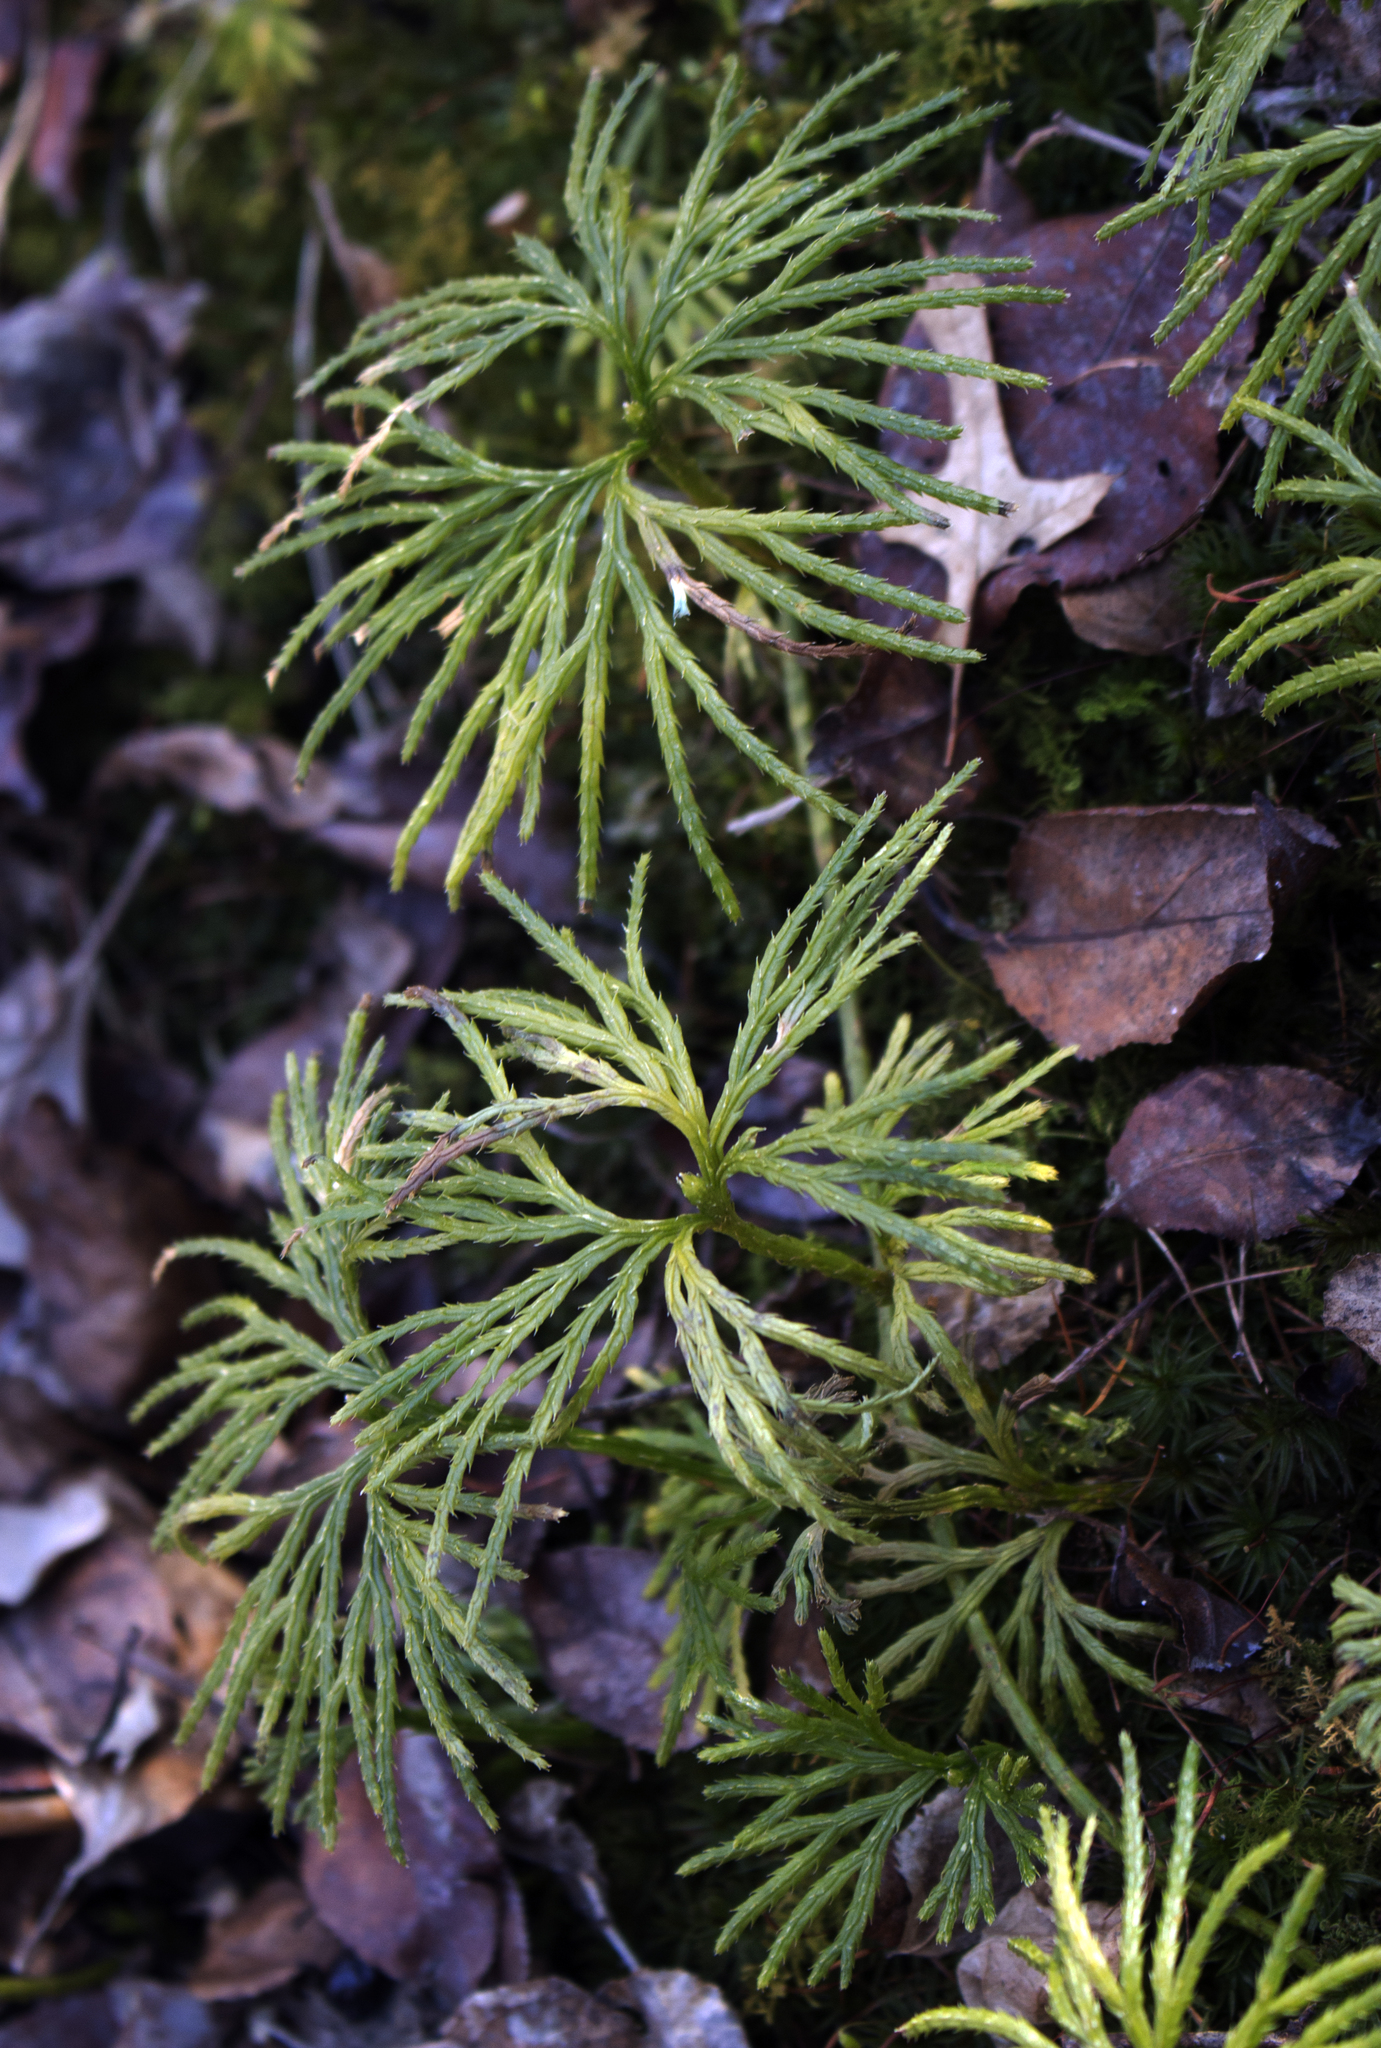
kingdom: Plantae
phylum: Tracheophyta
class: Lycopodiopsida
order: Lycopodiales
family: Lycopodiaceae
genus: Diphasiastrum
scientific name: Diphasiastrum digitatum
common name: Southern running-pine
